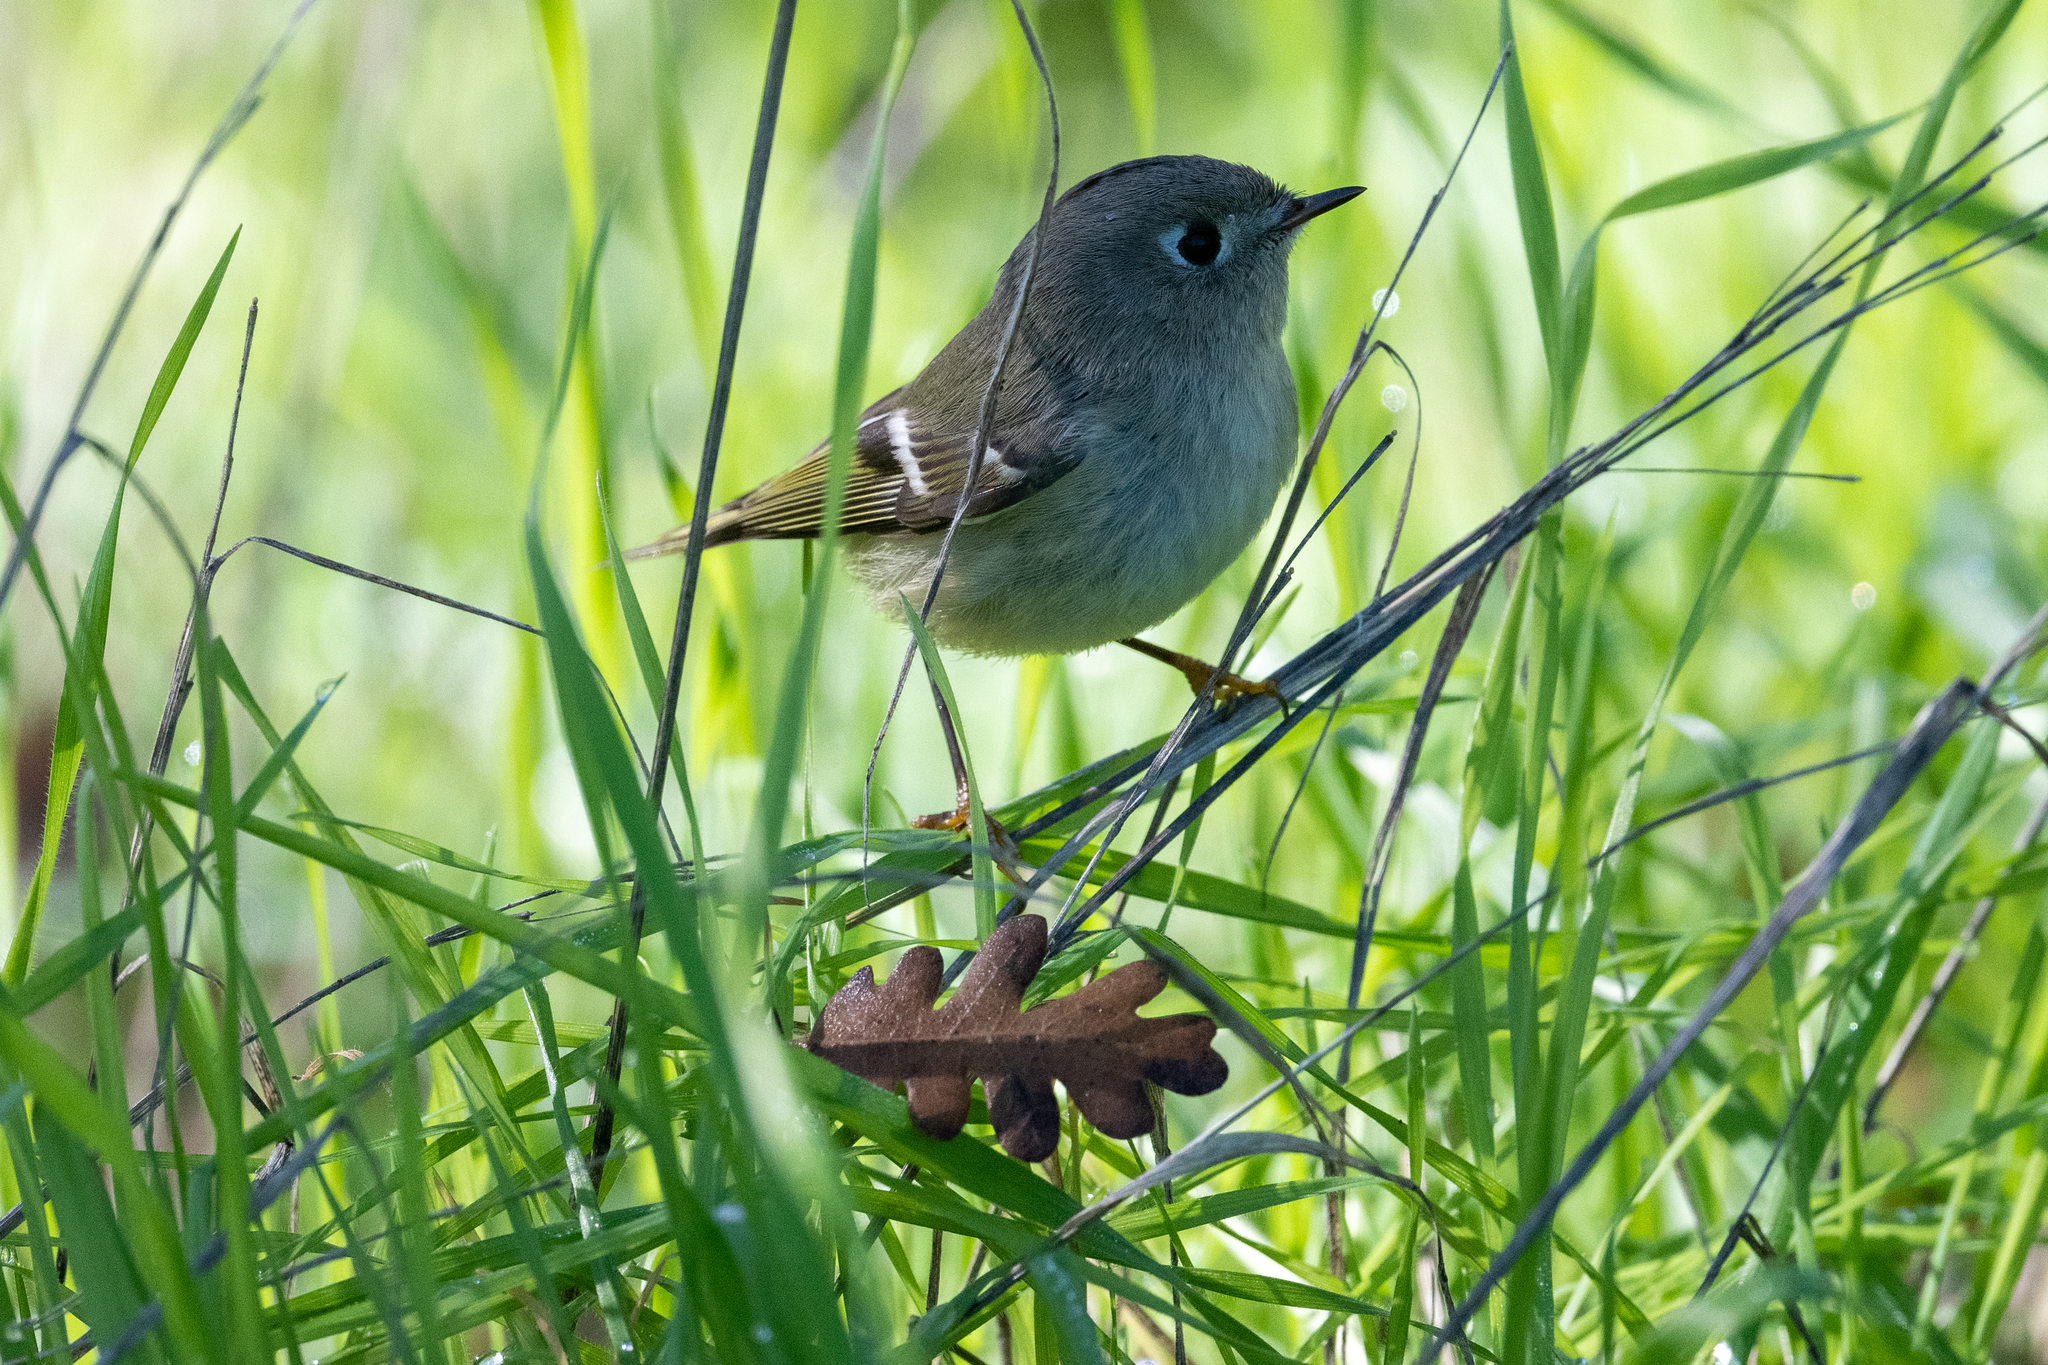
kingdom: Animalia
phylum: Chordata
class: Aves
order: Passeriformes
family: Regulidae
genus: Regulus
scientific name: Regulus calendula
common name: Ruby-crowned kinglet
